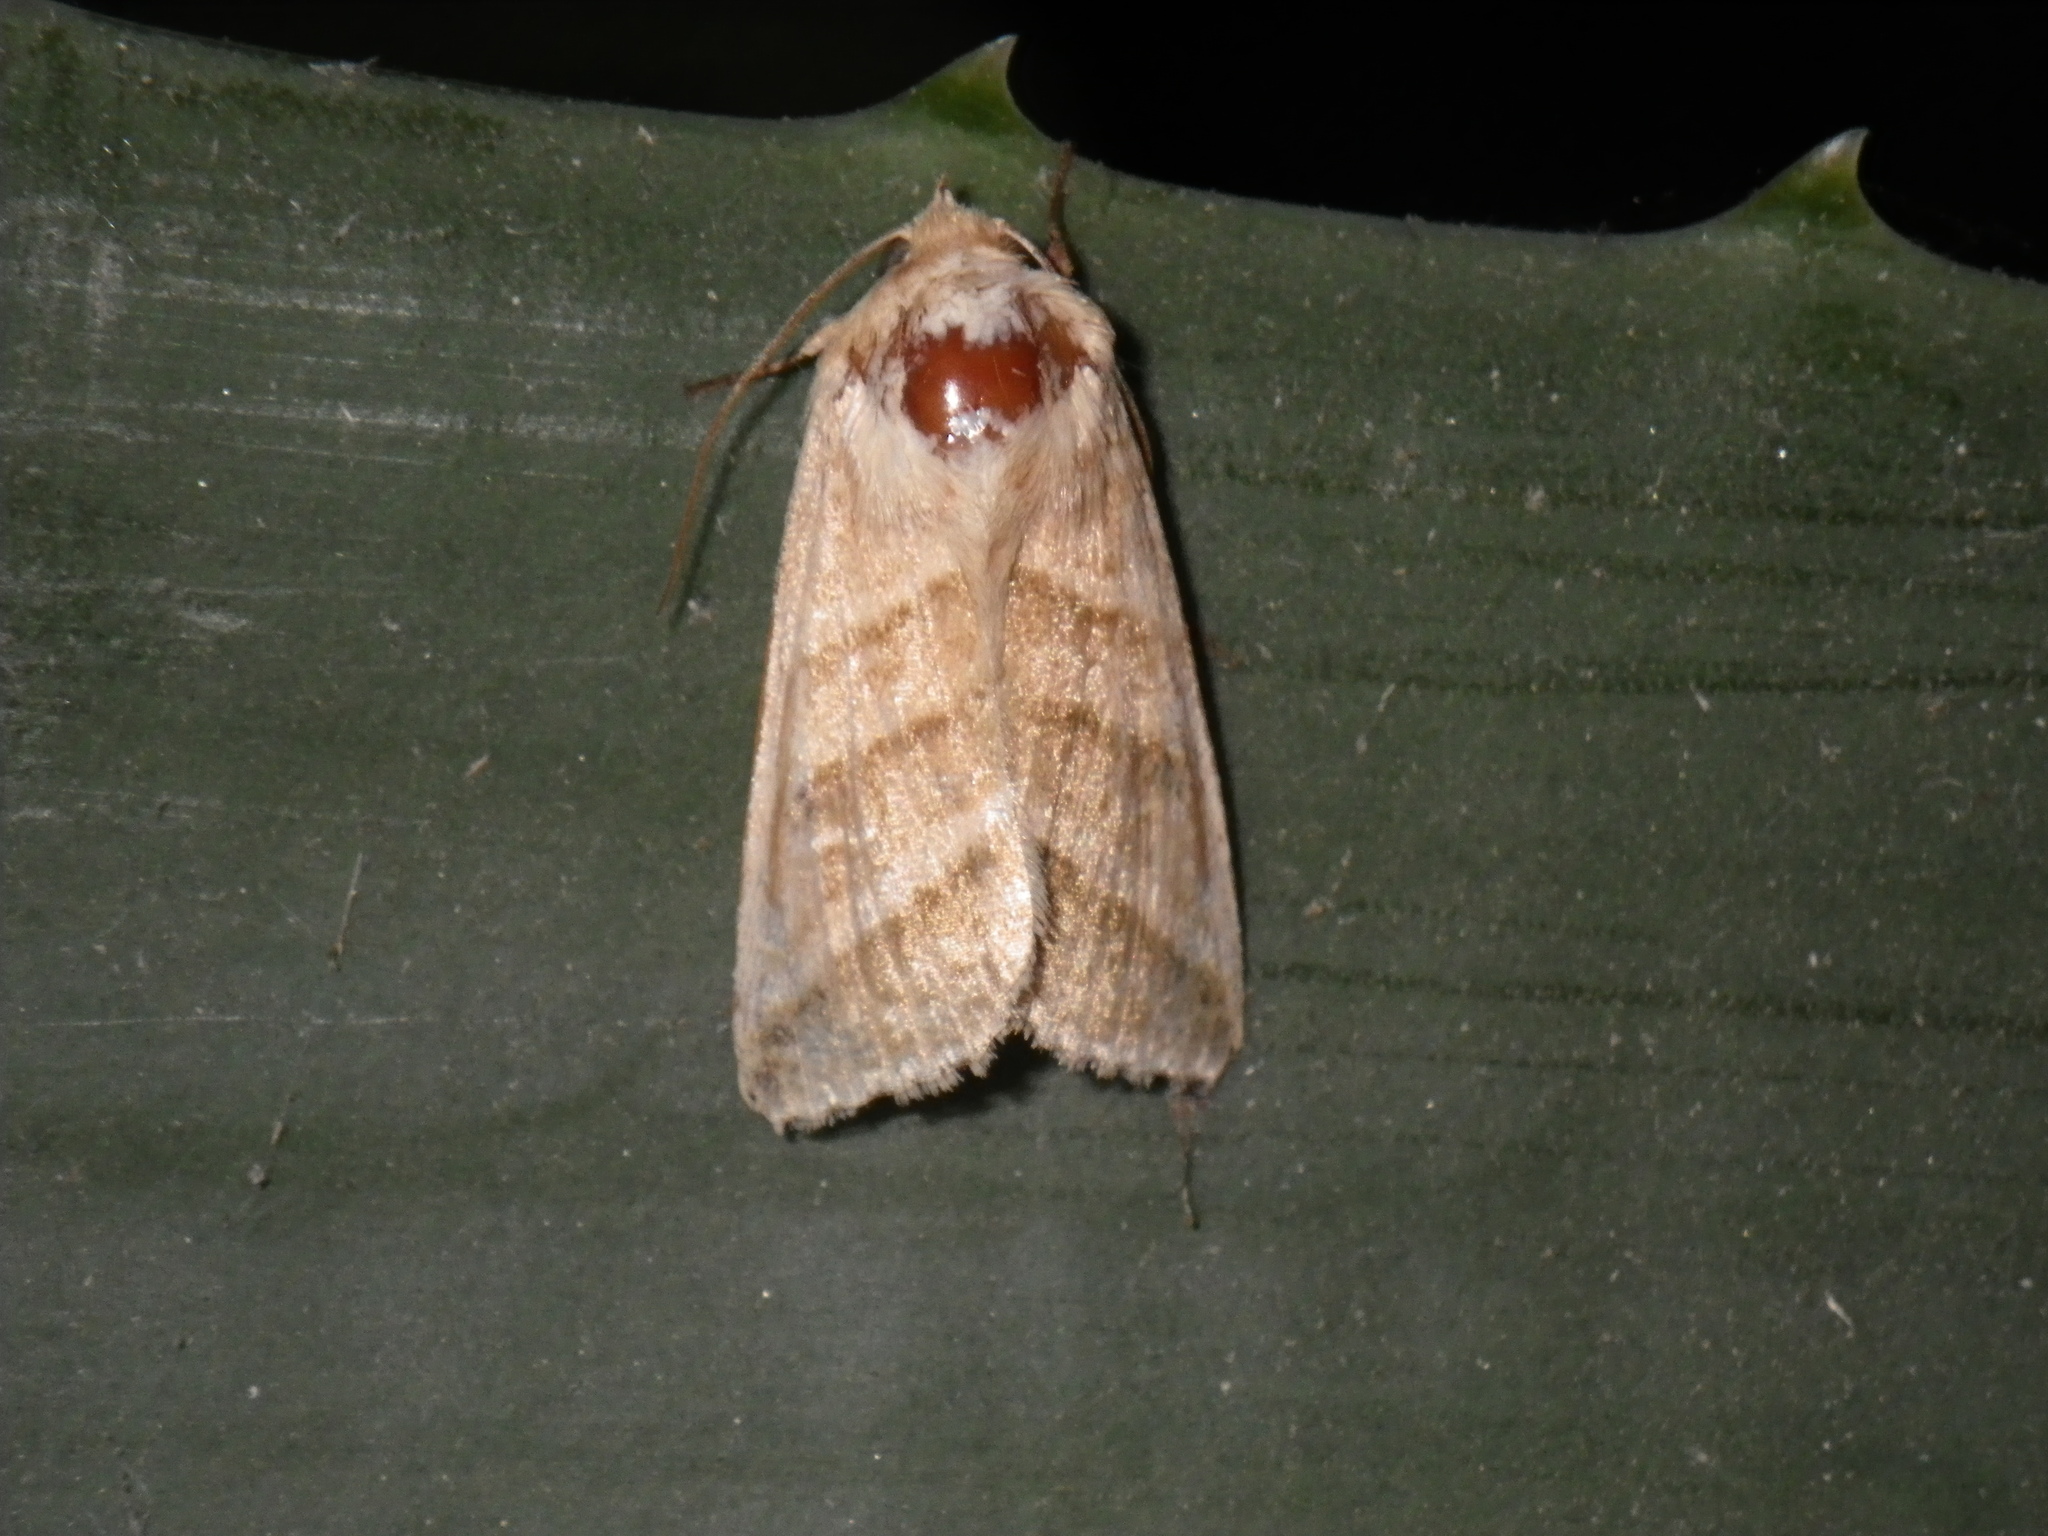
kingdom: Animalia
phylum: Arthropoda
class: Insecta
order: Lepidoptera
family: Noctuidae
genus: Chloridea
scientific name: Chloridea virescens
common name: Tobacco budworm
